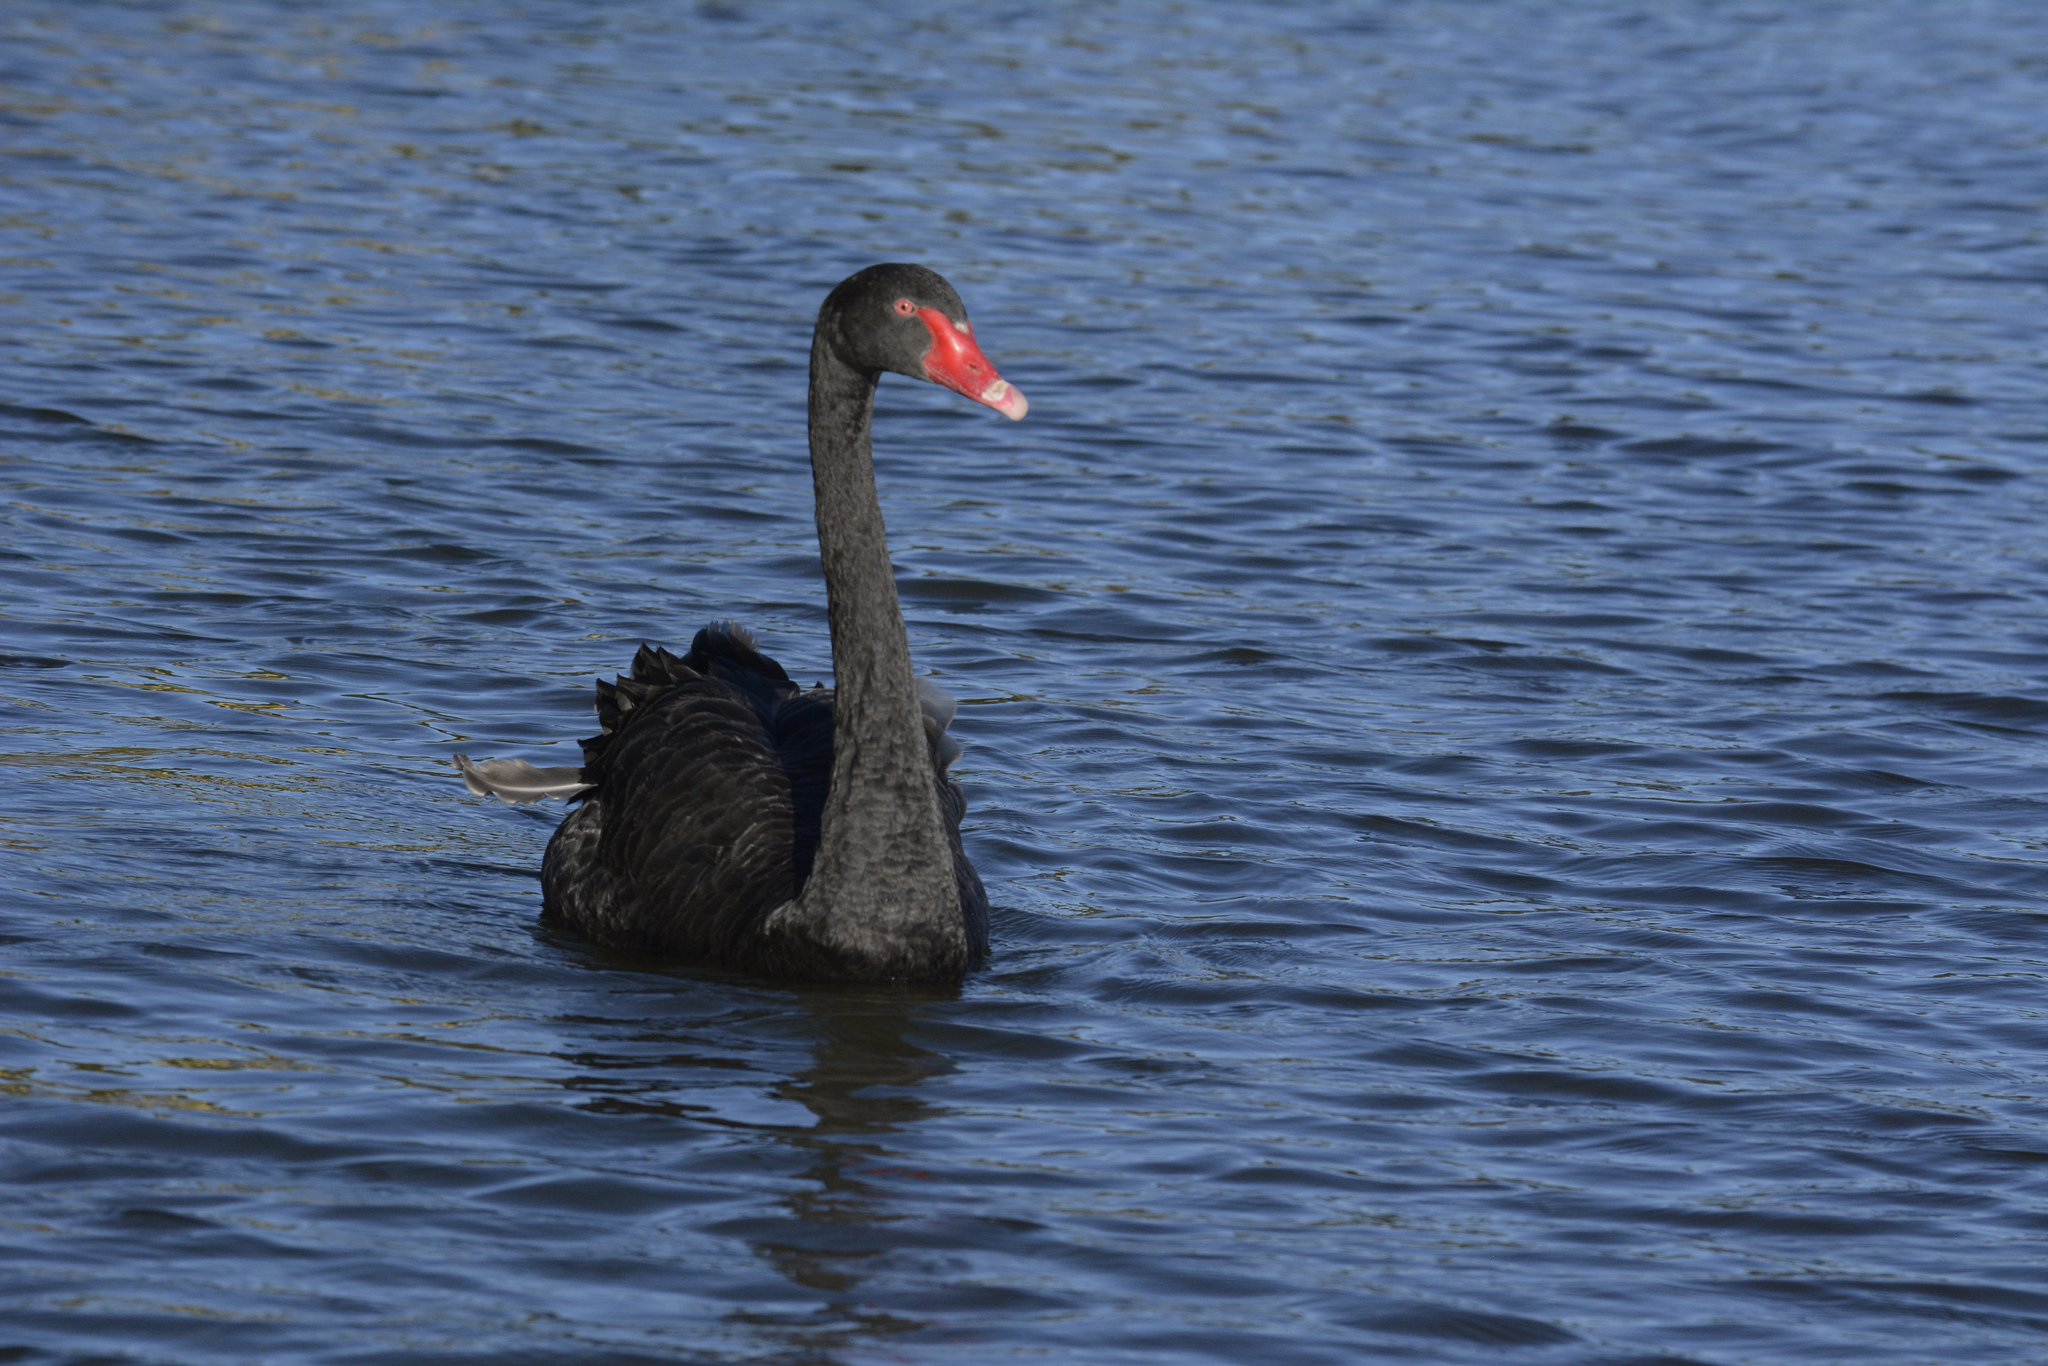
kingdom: Animalia
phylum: Chordata
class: Aves
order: Anseriformes
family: Anatidae
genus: Cygnus
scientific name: Cygnus atratus
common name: Black swan
